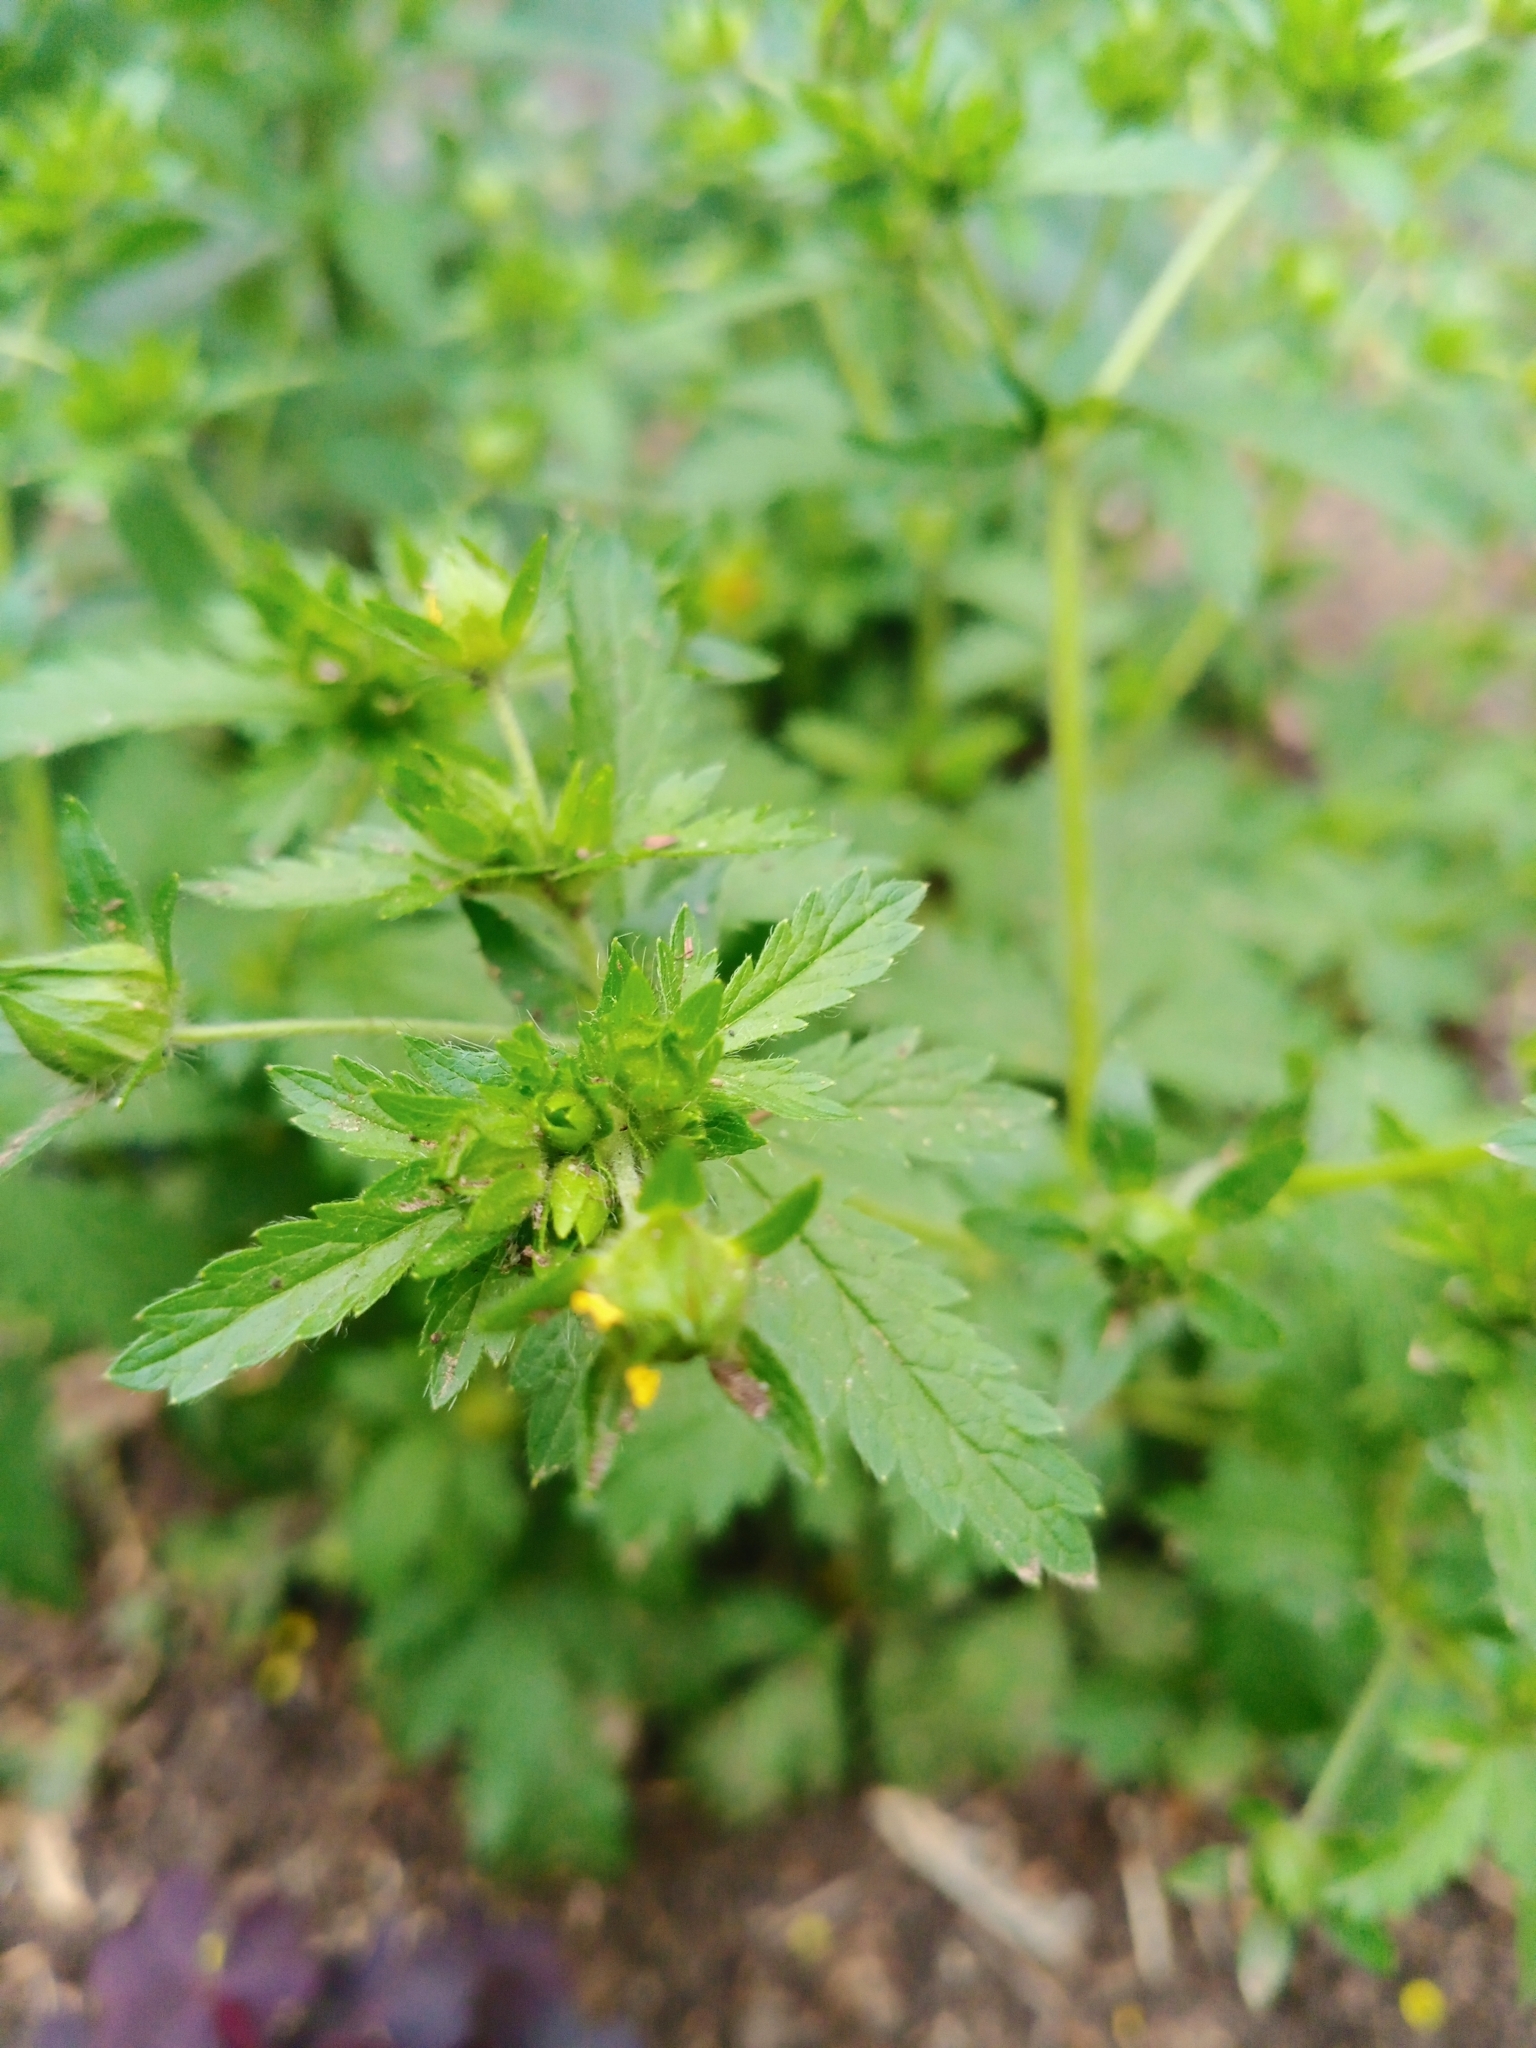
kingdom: Plantae
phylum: Tracheophyta
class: Magnoliopsida
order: Rosales
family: Rosaceae
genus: Potentilla
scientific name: Potentilla norvegica
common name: Ternate-leaved cinquefoil
